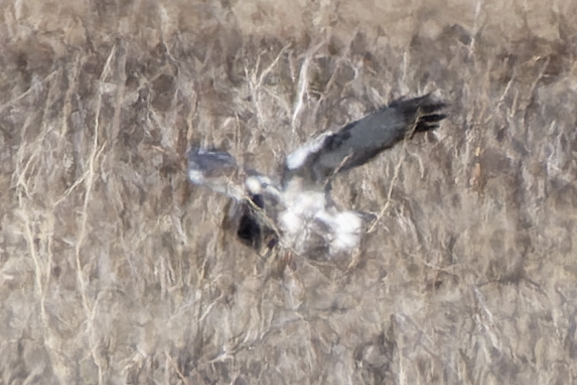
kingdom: Animalia
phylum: Chordata
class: Aves
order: Accipitriformes
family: Accipitridae
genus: Buteo
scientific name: Buteo lagopus
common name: Rough-legged buzzard
